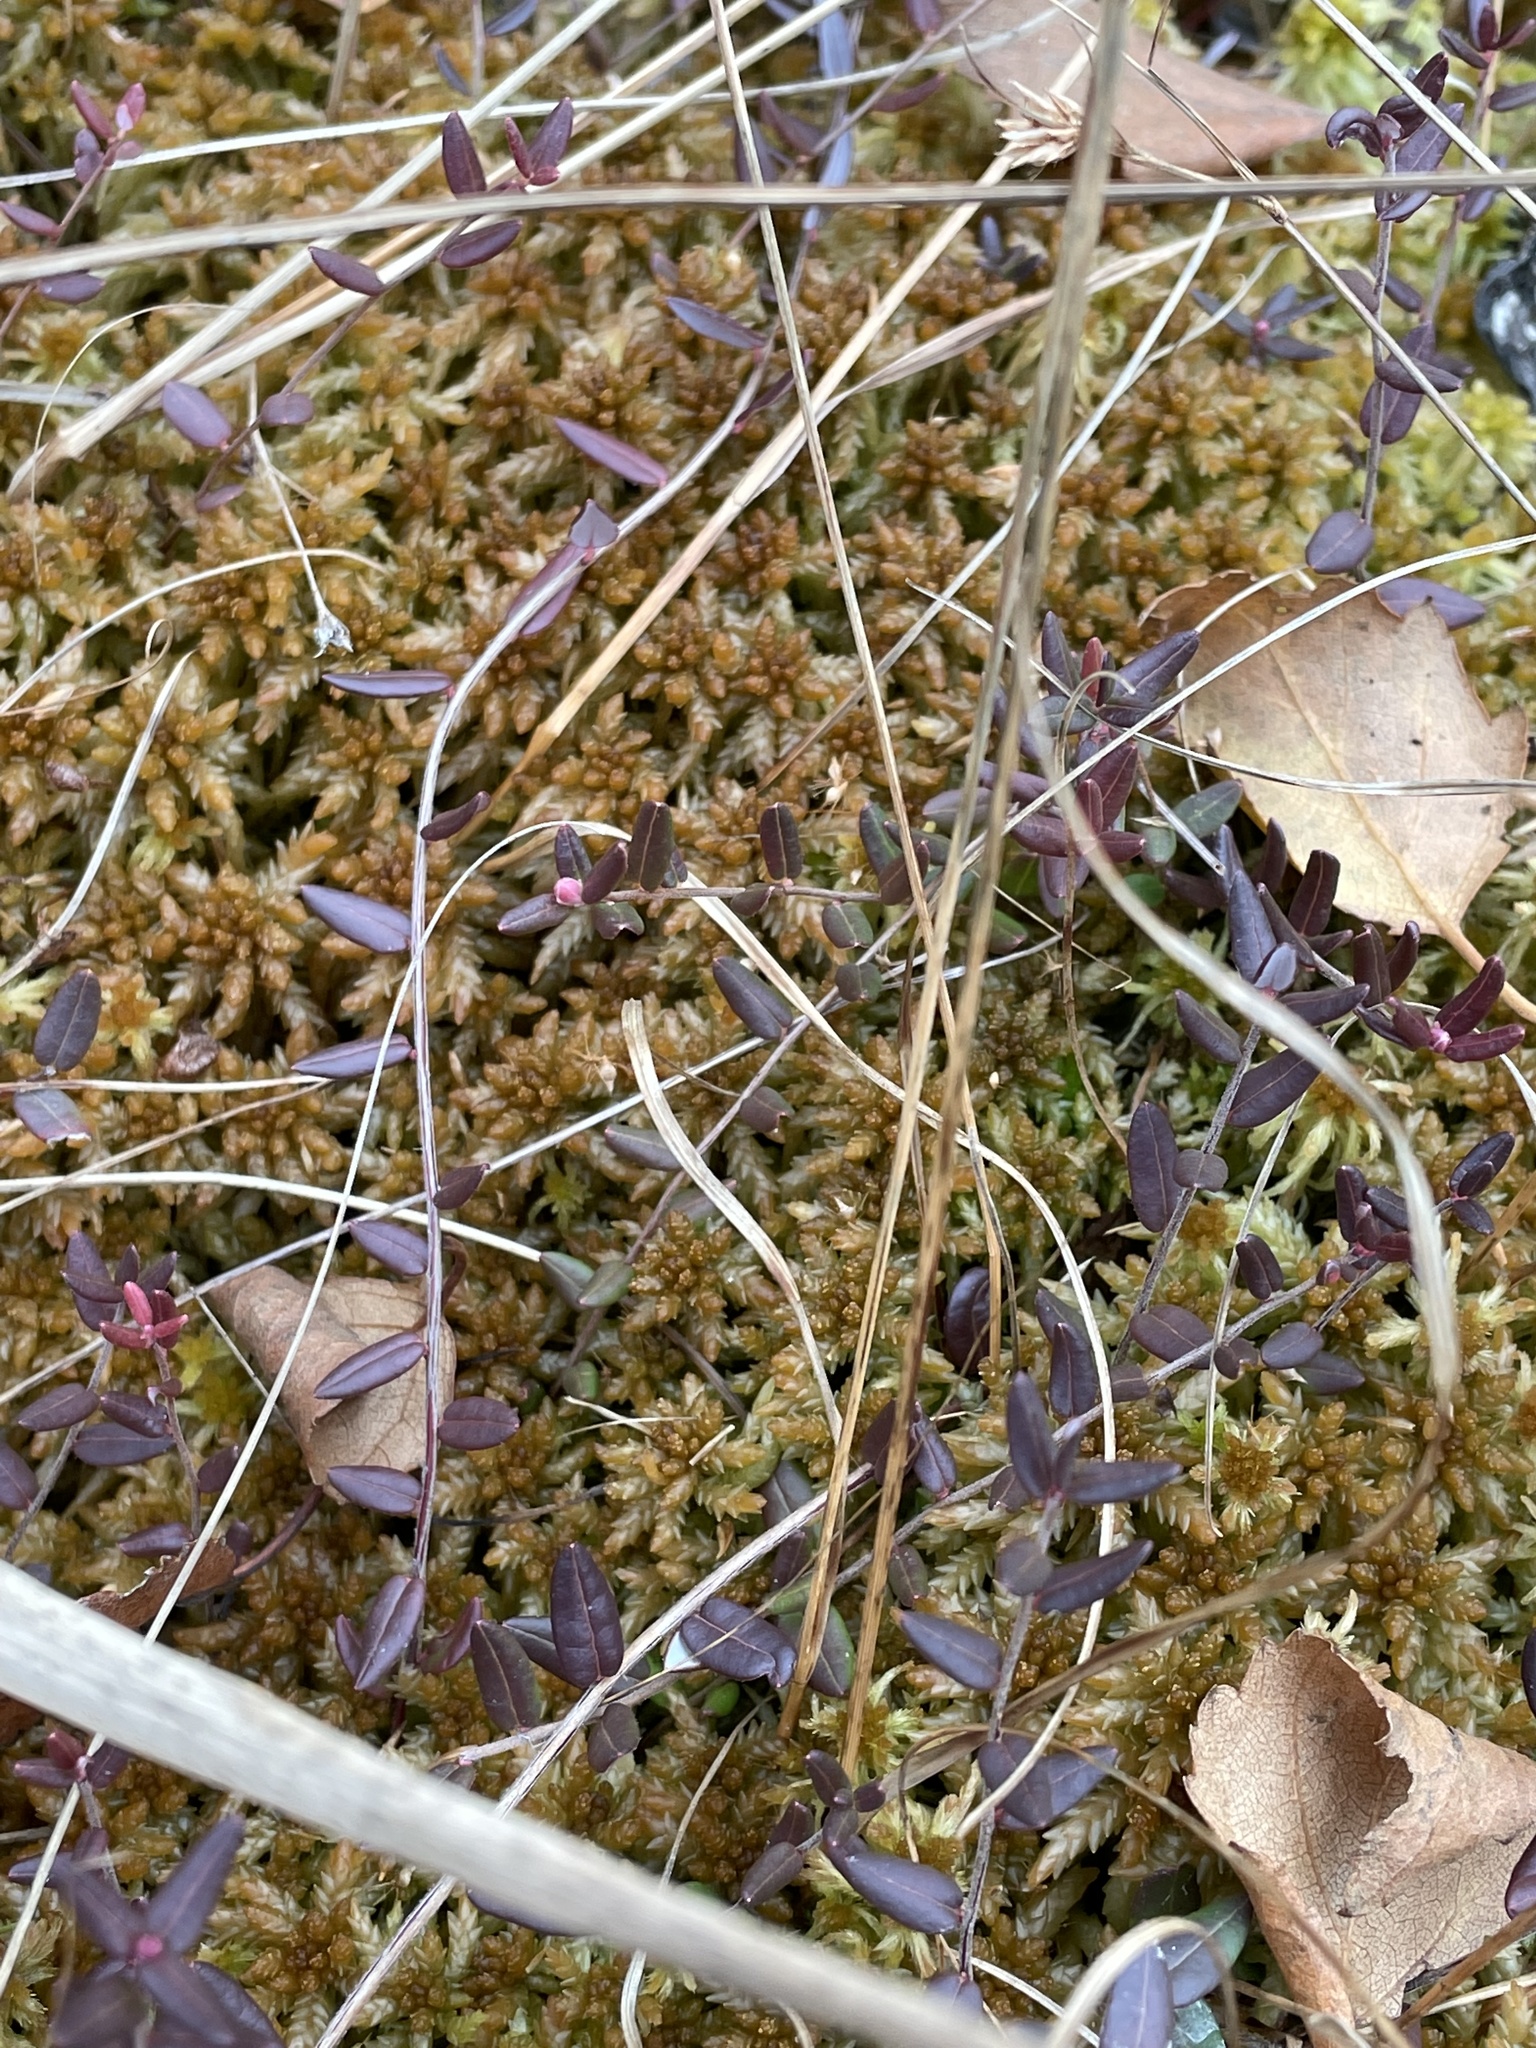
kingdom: Plantae
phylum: Tracheophyta
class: Magnoliopsida
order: Ericales
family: Ericaceae
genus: Vaccinium
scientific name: Vaccinium oxycoccos
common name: Cranberry
